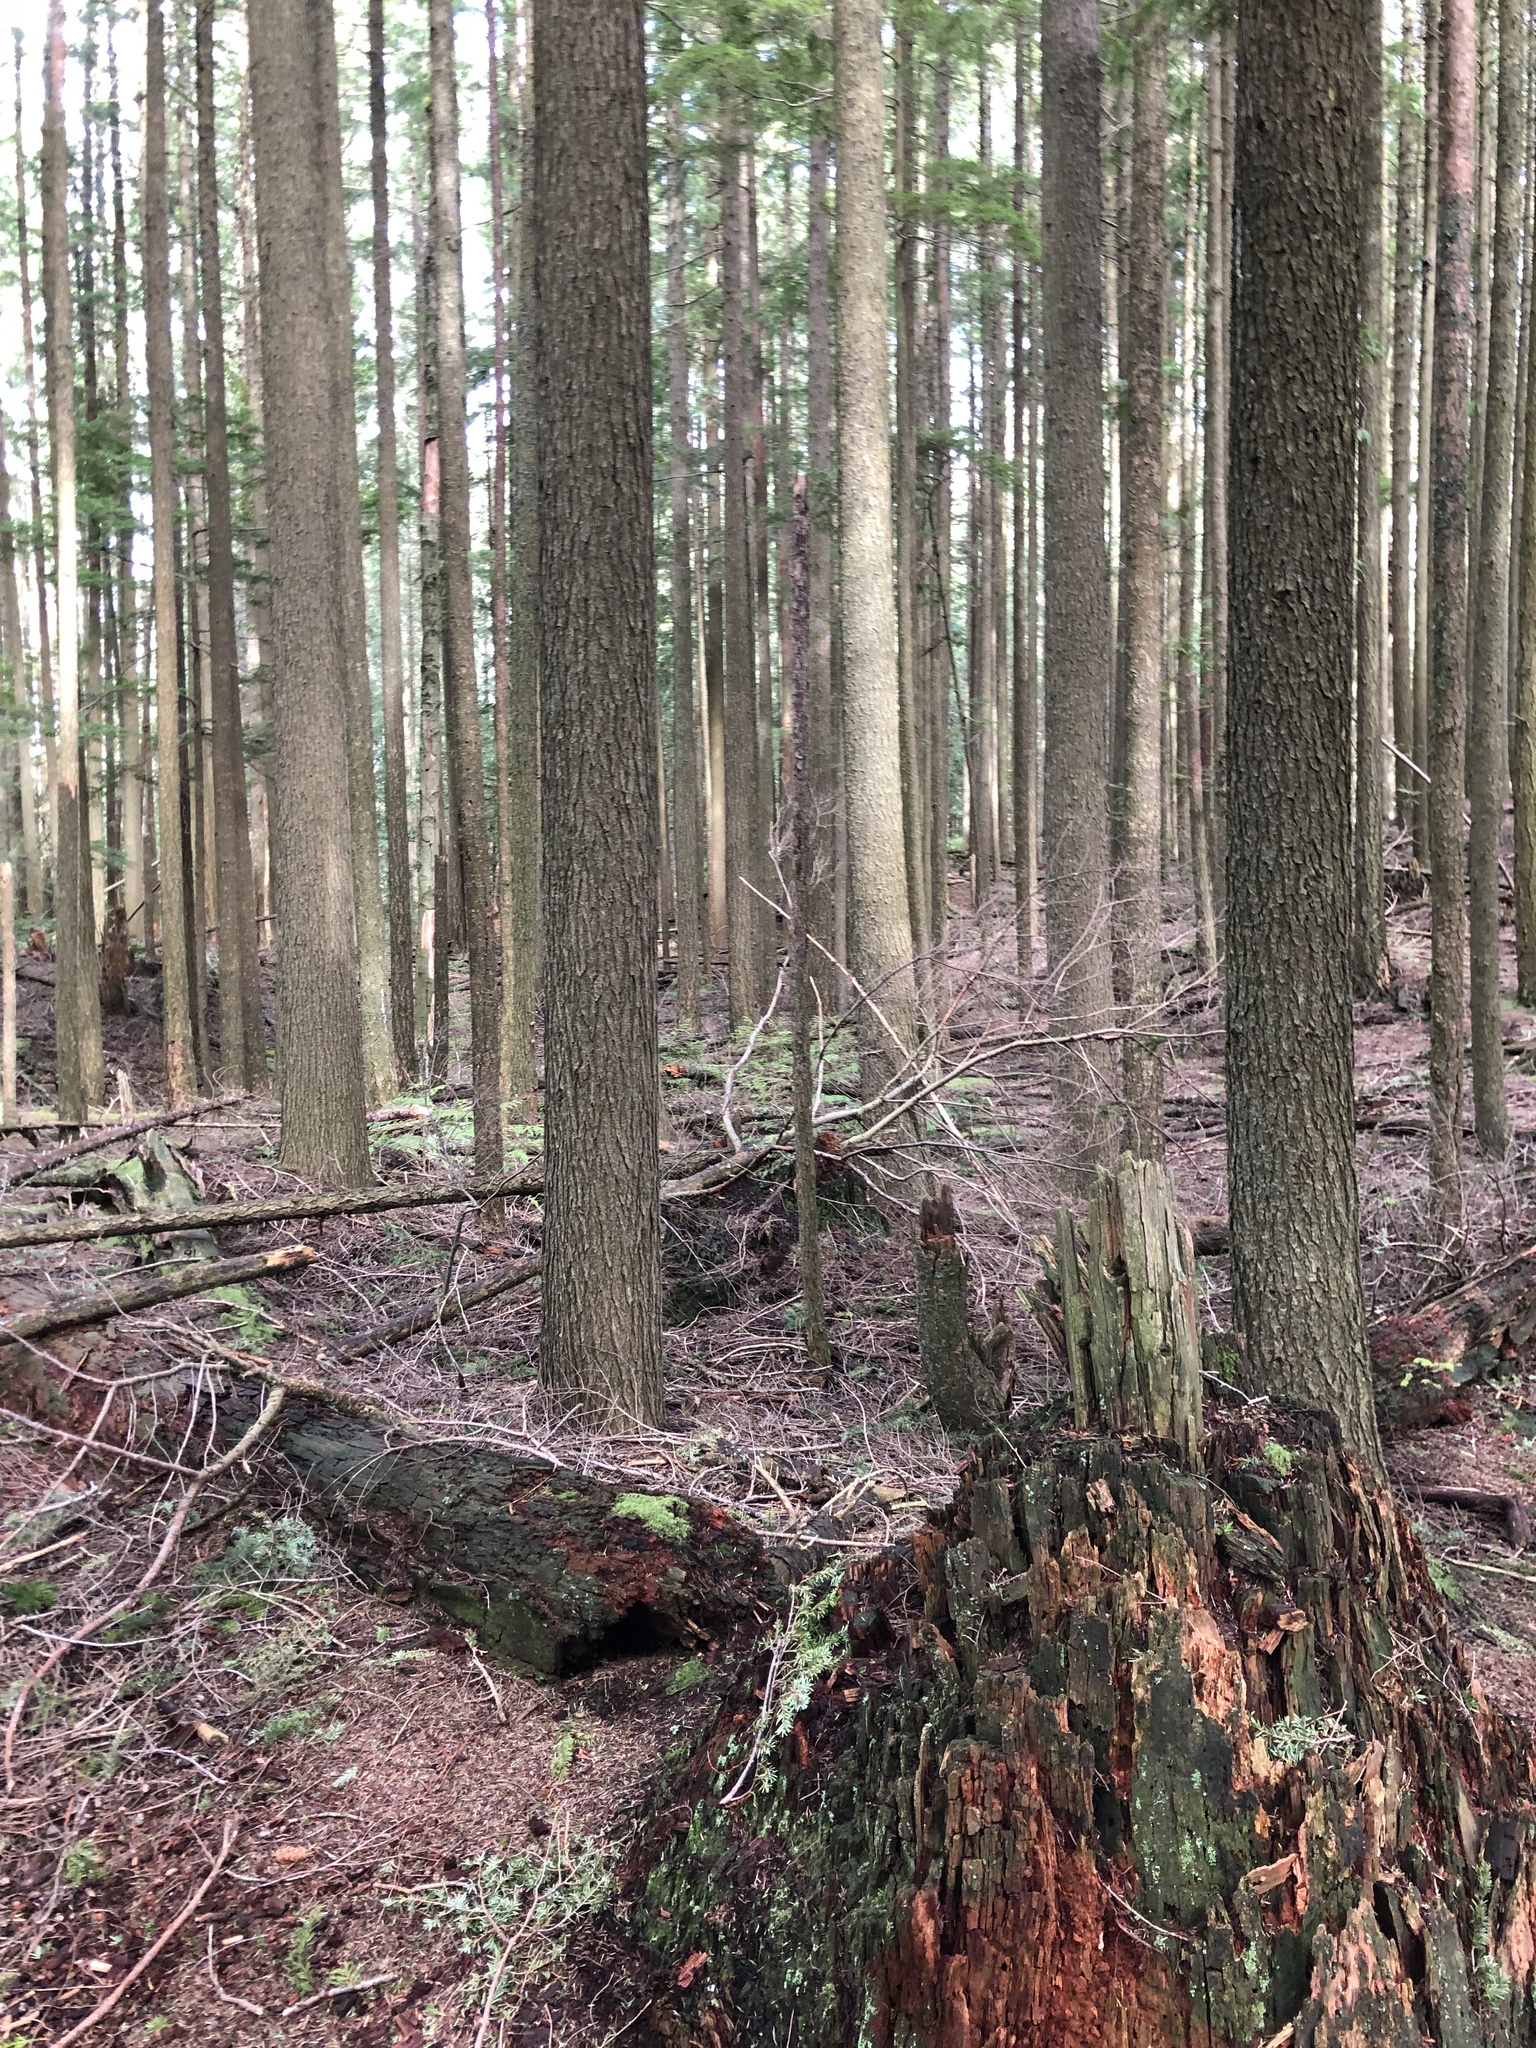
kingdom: Plantae
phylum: Tracheophyta
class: Pinopsida
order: Pinales
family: Pinaceae
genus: Tsuga
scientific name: Tsuga heterophylla
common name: Western hemlock
